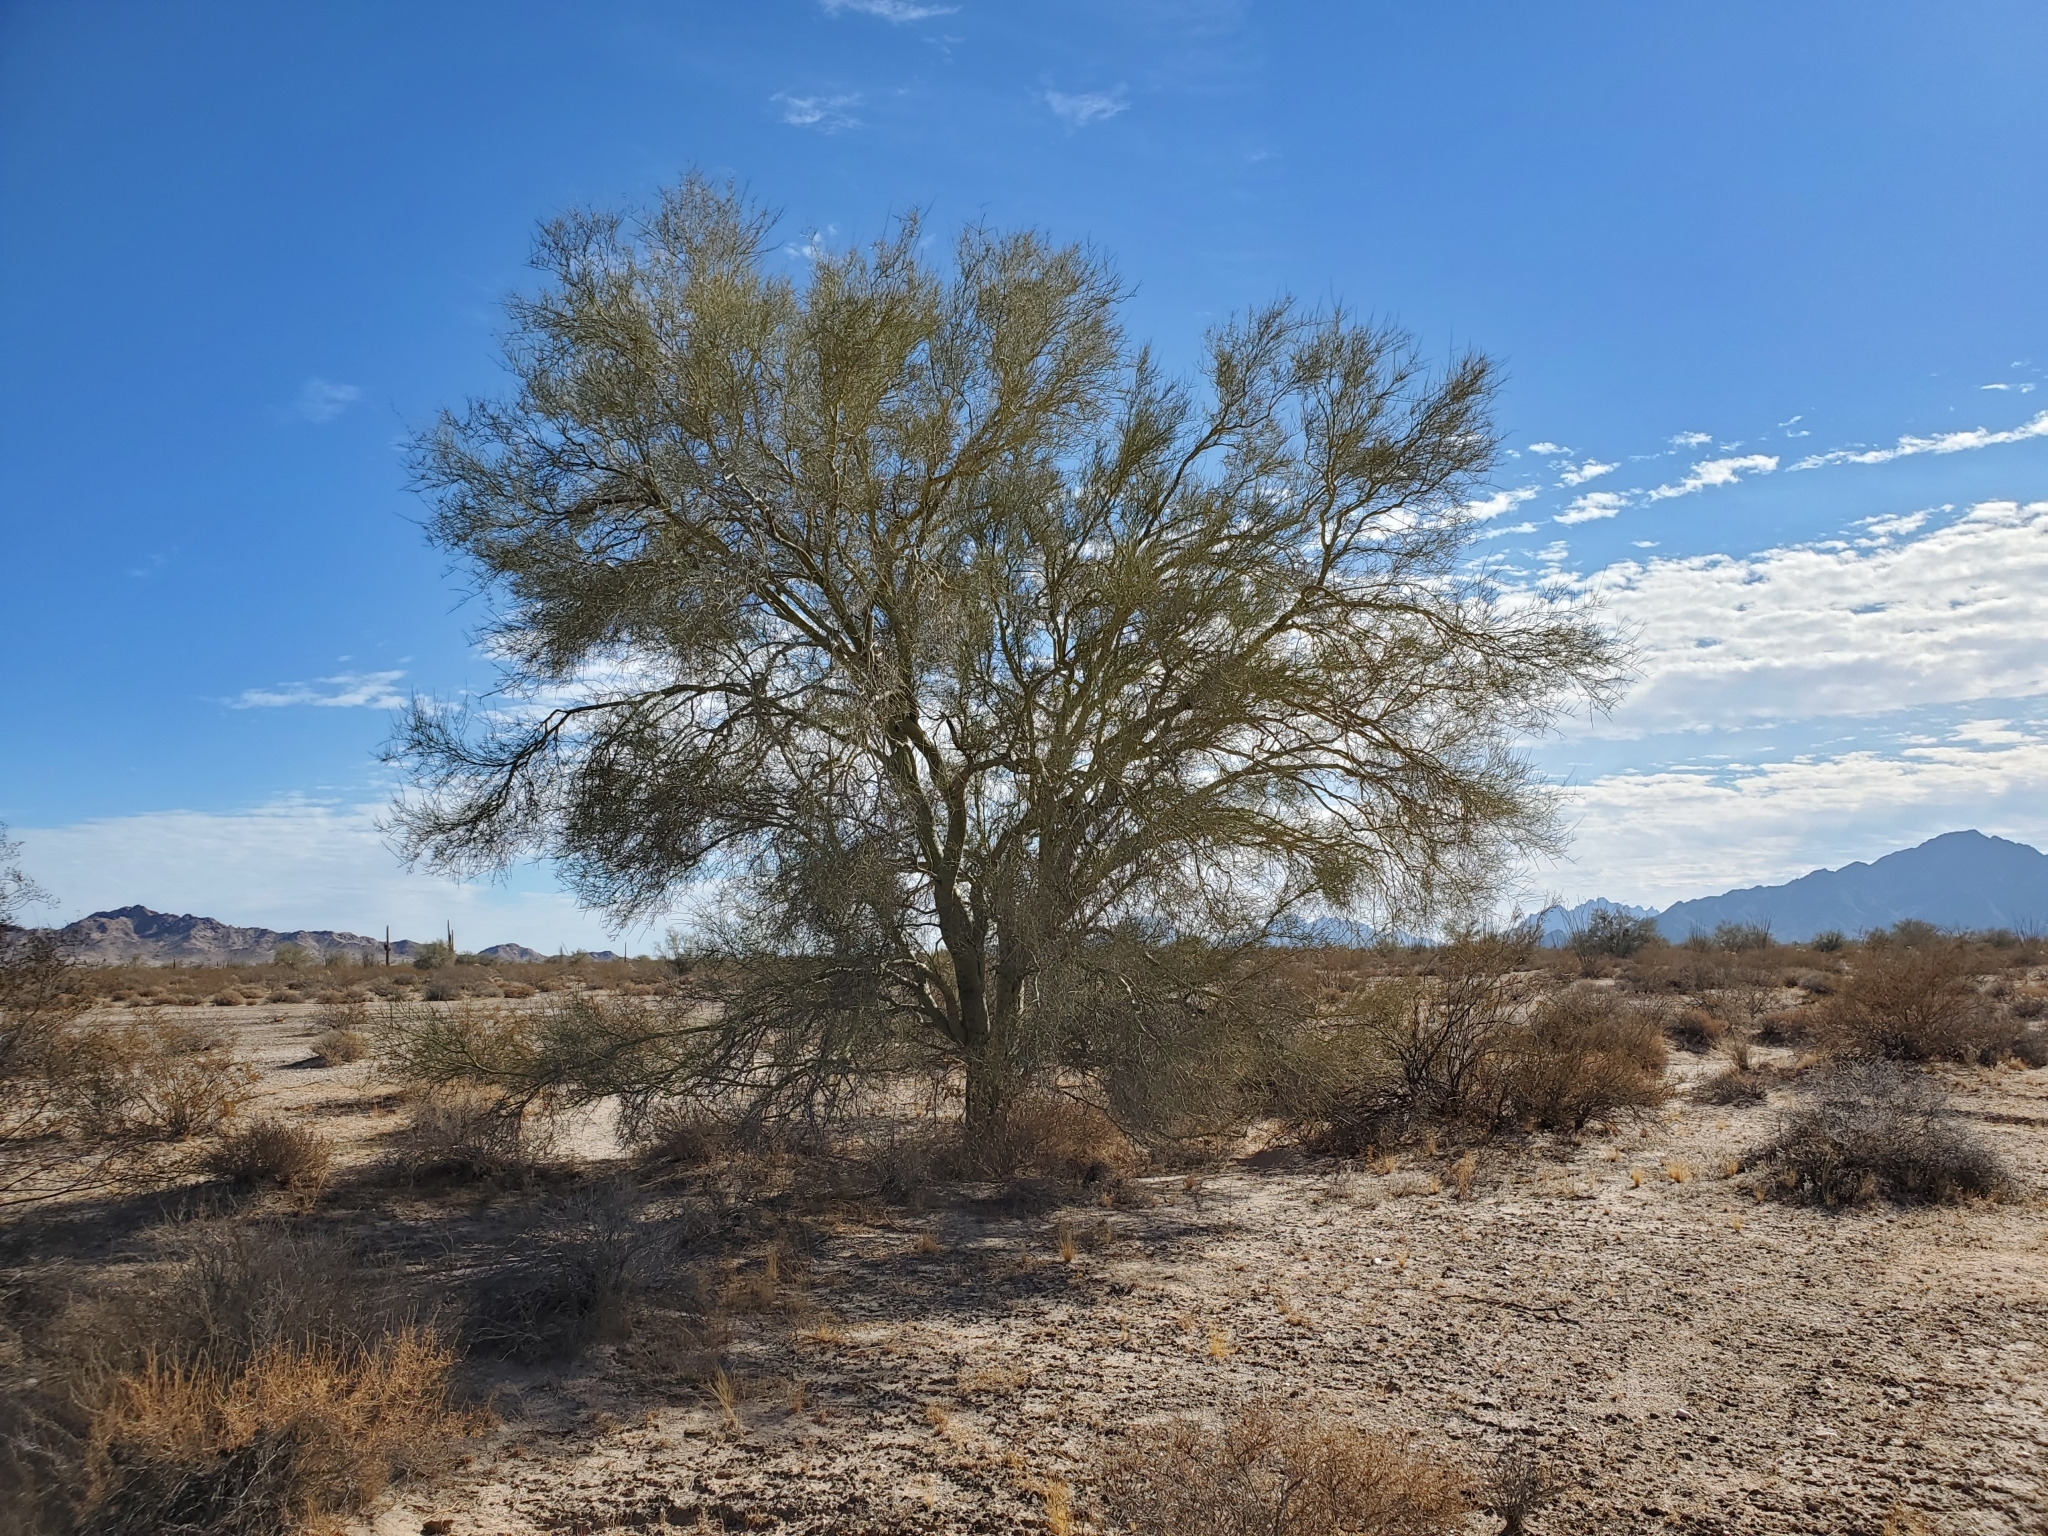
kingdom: Plantae
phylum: Tracheophyta
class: Magnoliopsida
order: Fabales
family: Fabaceae
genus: Parkinsonia
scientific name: Parkinsonia florida
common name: Blue paloverde
